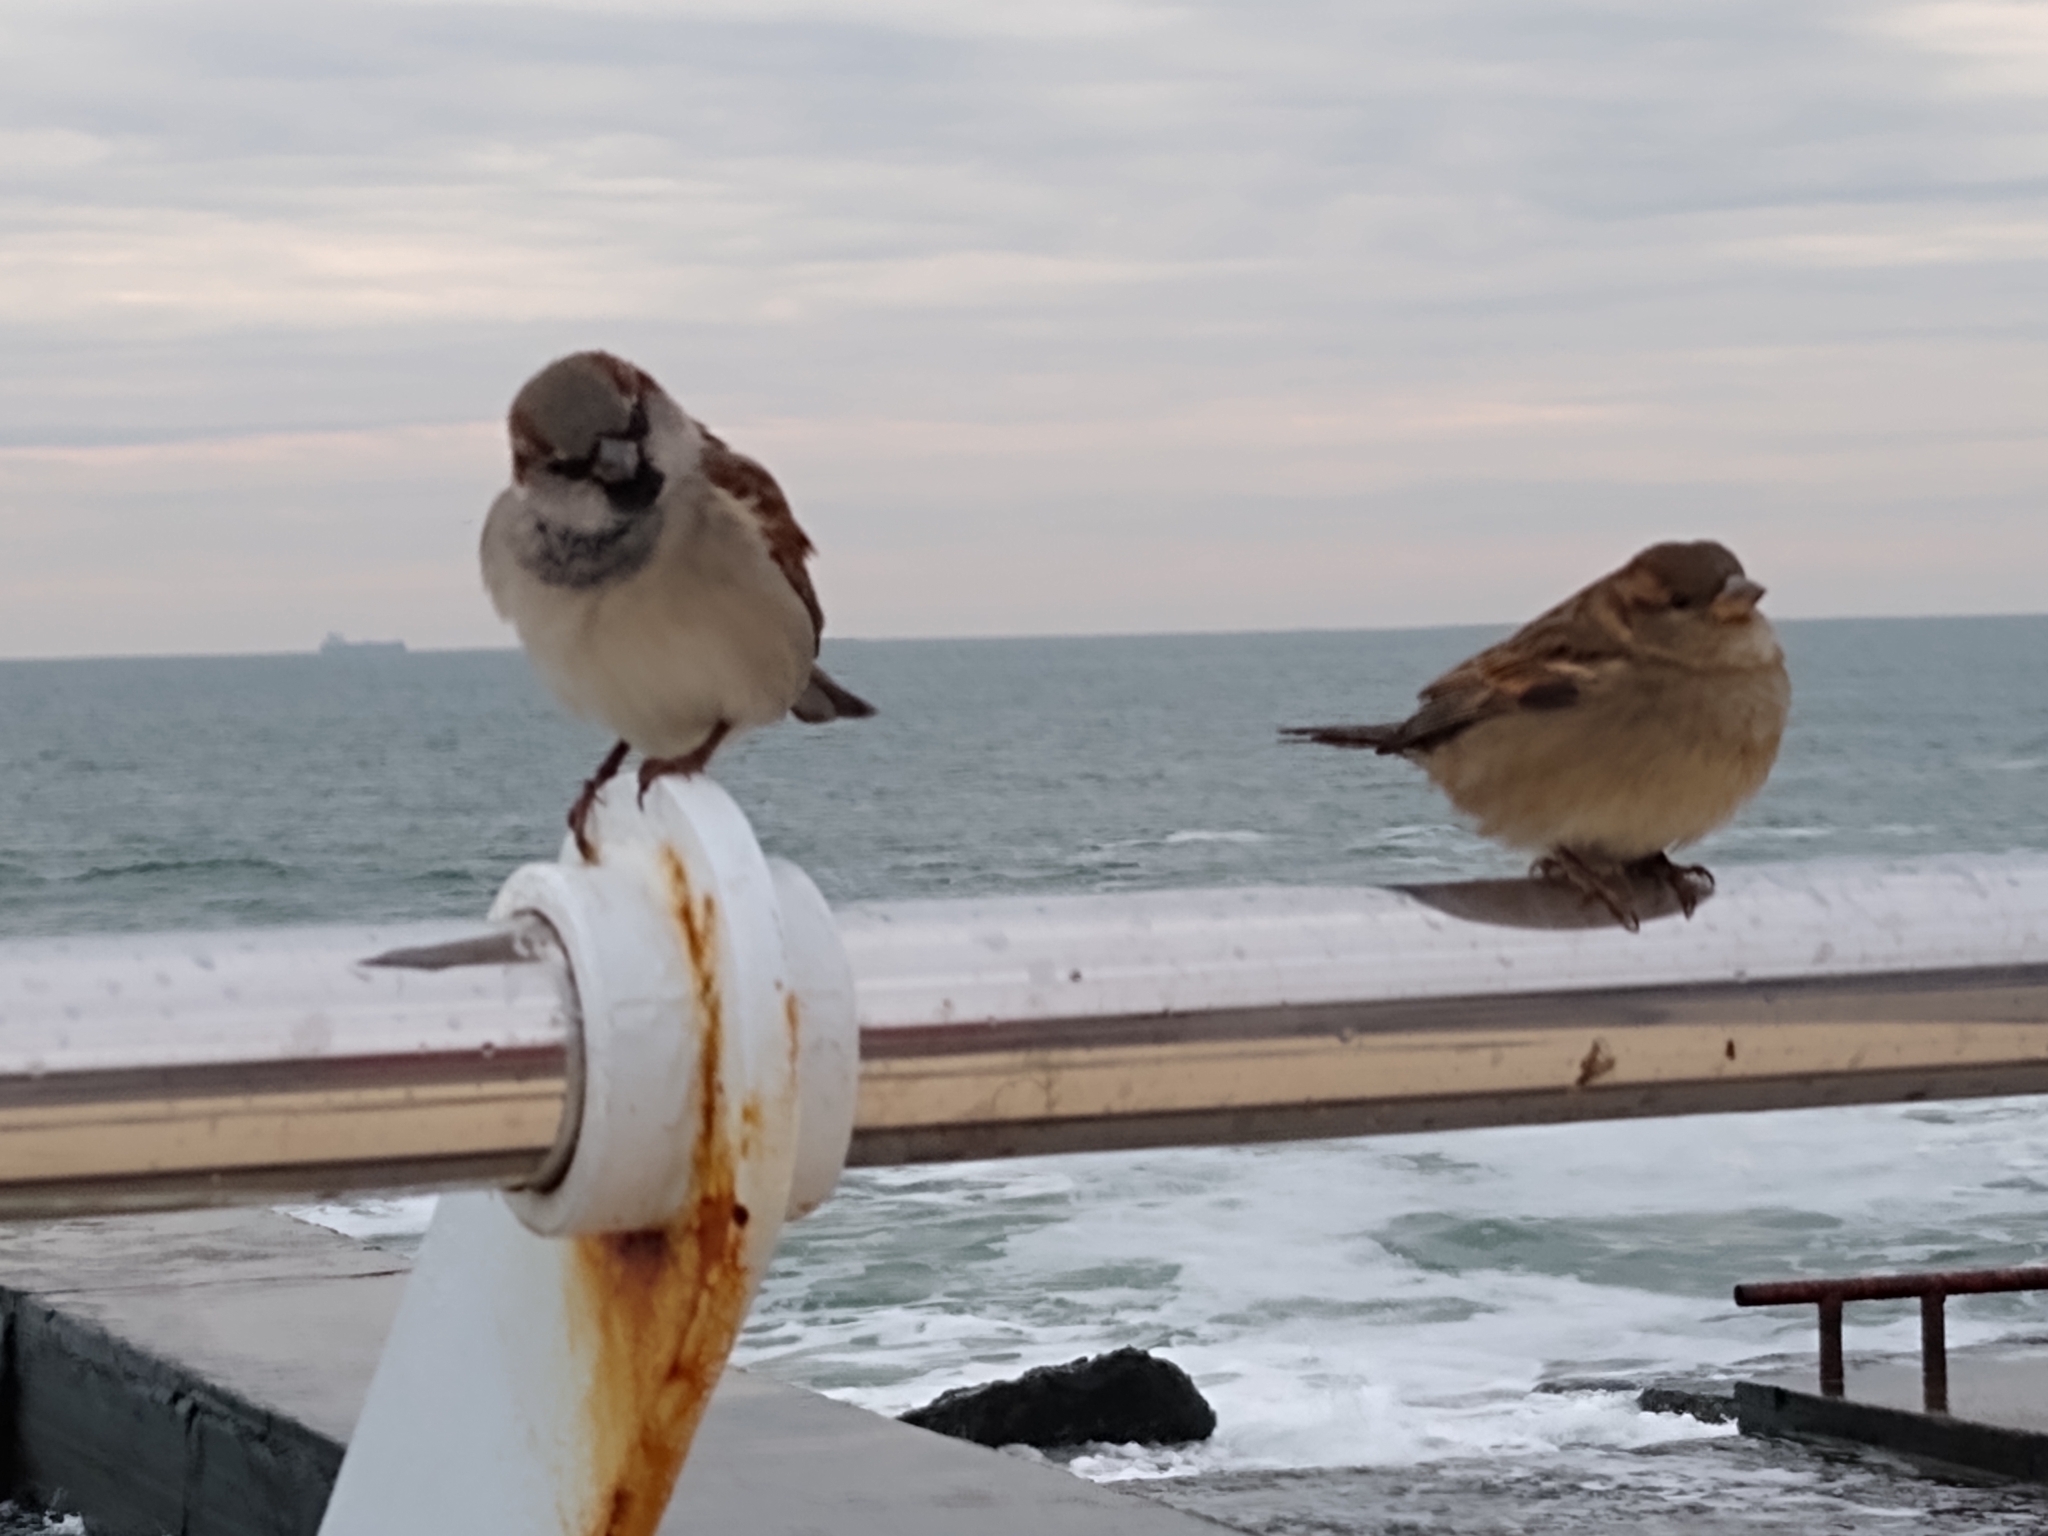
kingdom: Animalia
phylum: Chordata
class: Aves
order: Passeriformes
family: Passeridae
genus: Passer
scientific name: Passer domesticus
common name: House sparrow
